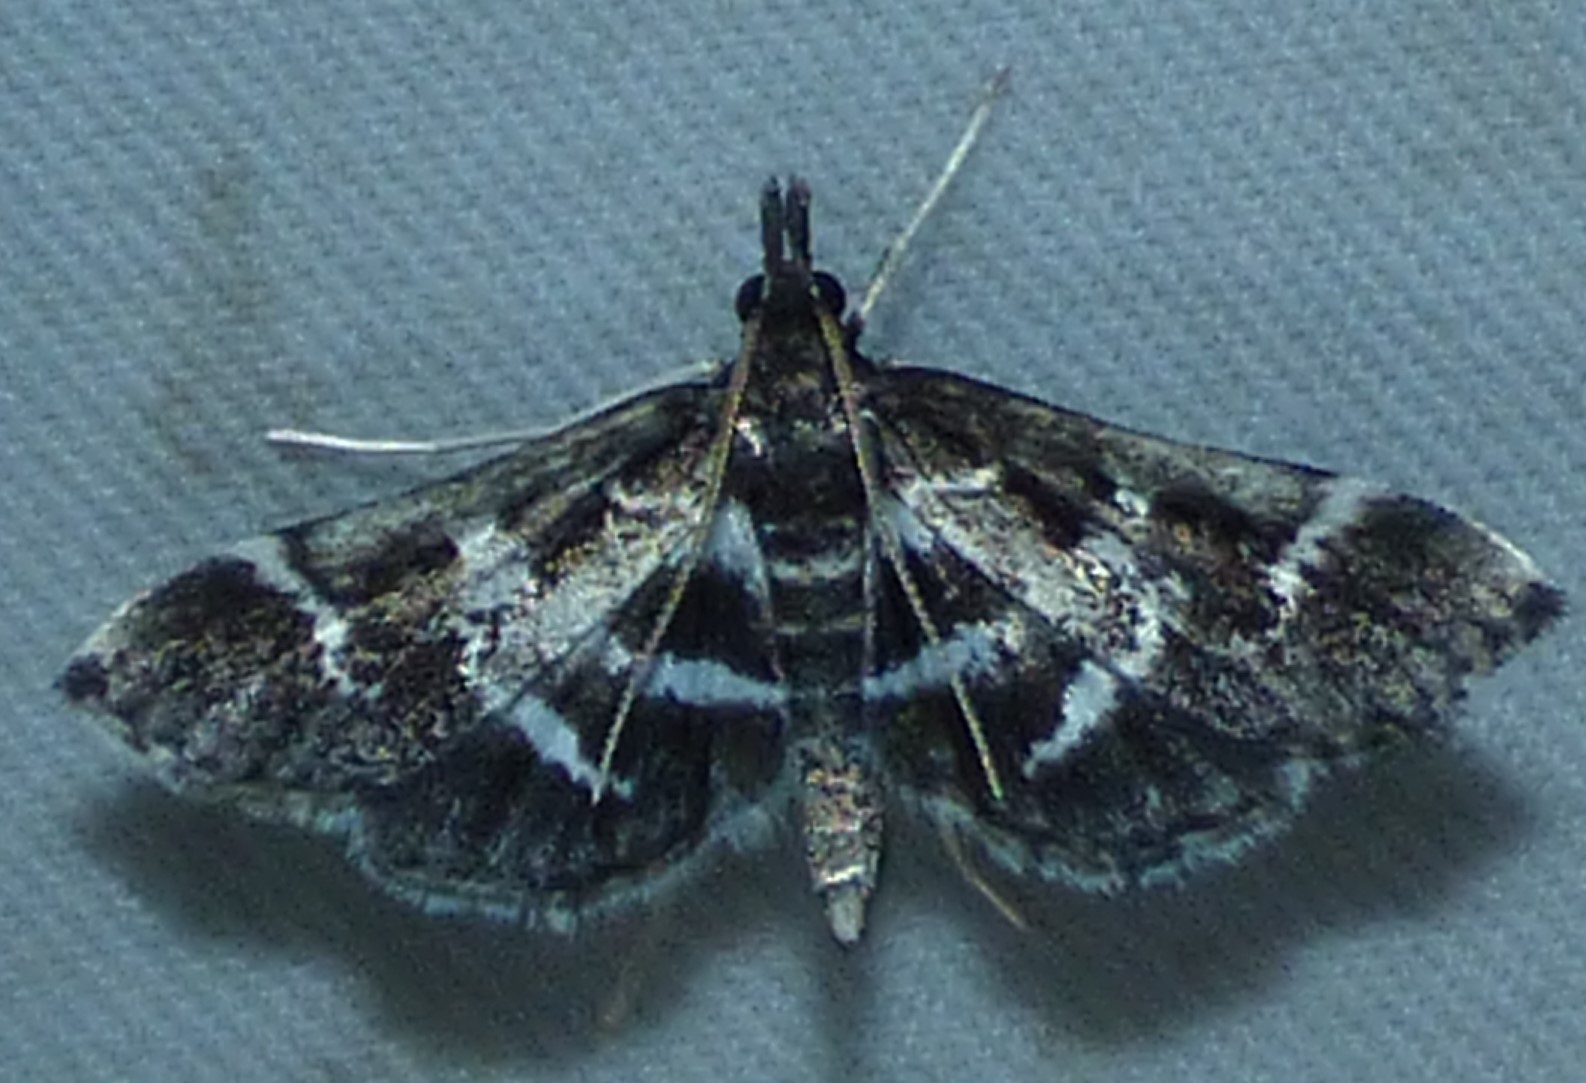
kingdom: Animalia
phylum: Arthropoda
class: Insecta
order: Lepidoptera
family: Crambidae
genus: Diasemiodes
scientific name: Diasemiodes janassialis
